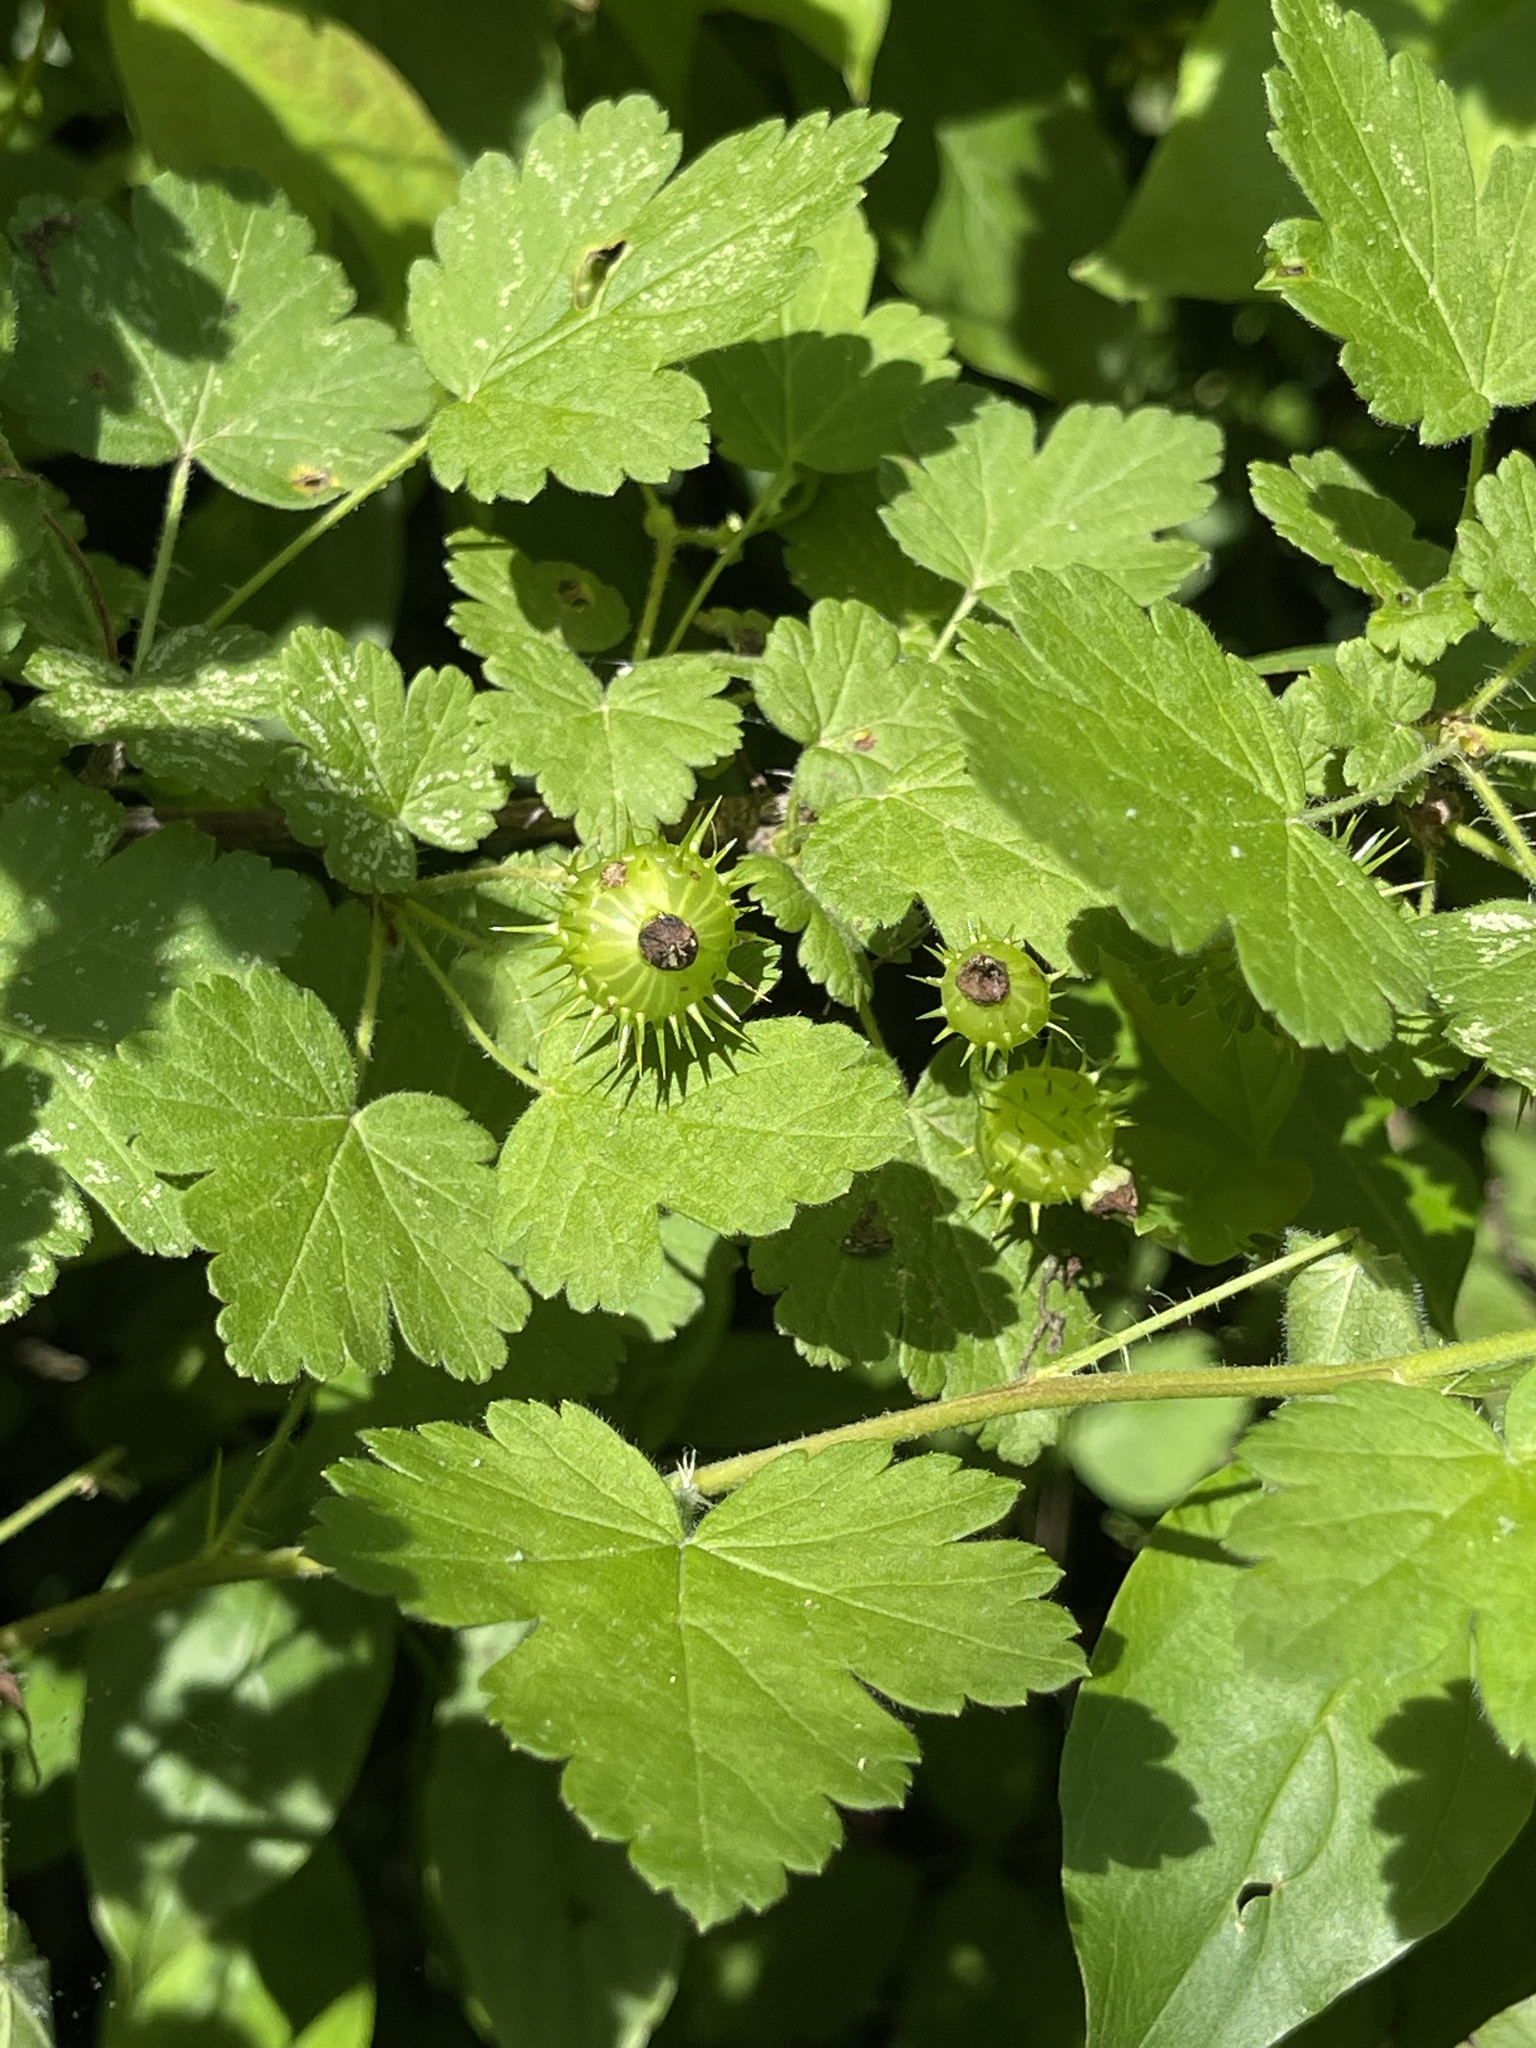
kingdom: Plantae
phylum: Tracheophyta
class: Magnoliopsida
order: Saxifragales
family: Grossulariaceae
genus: Ribes
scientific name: Ribes cynosbati
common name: American gooseberry
